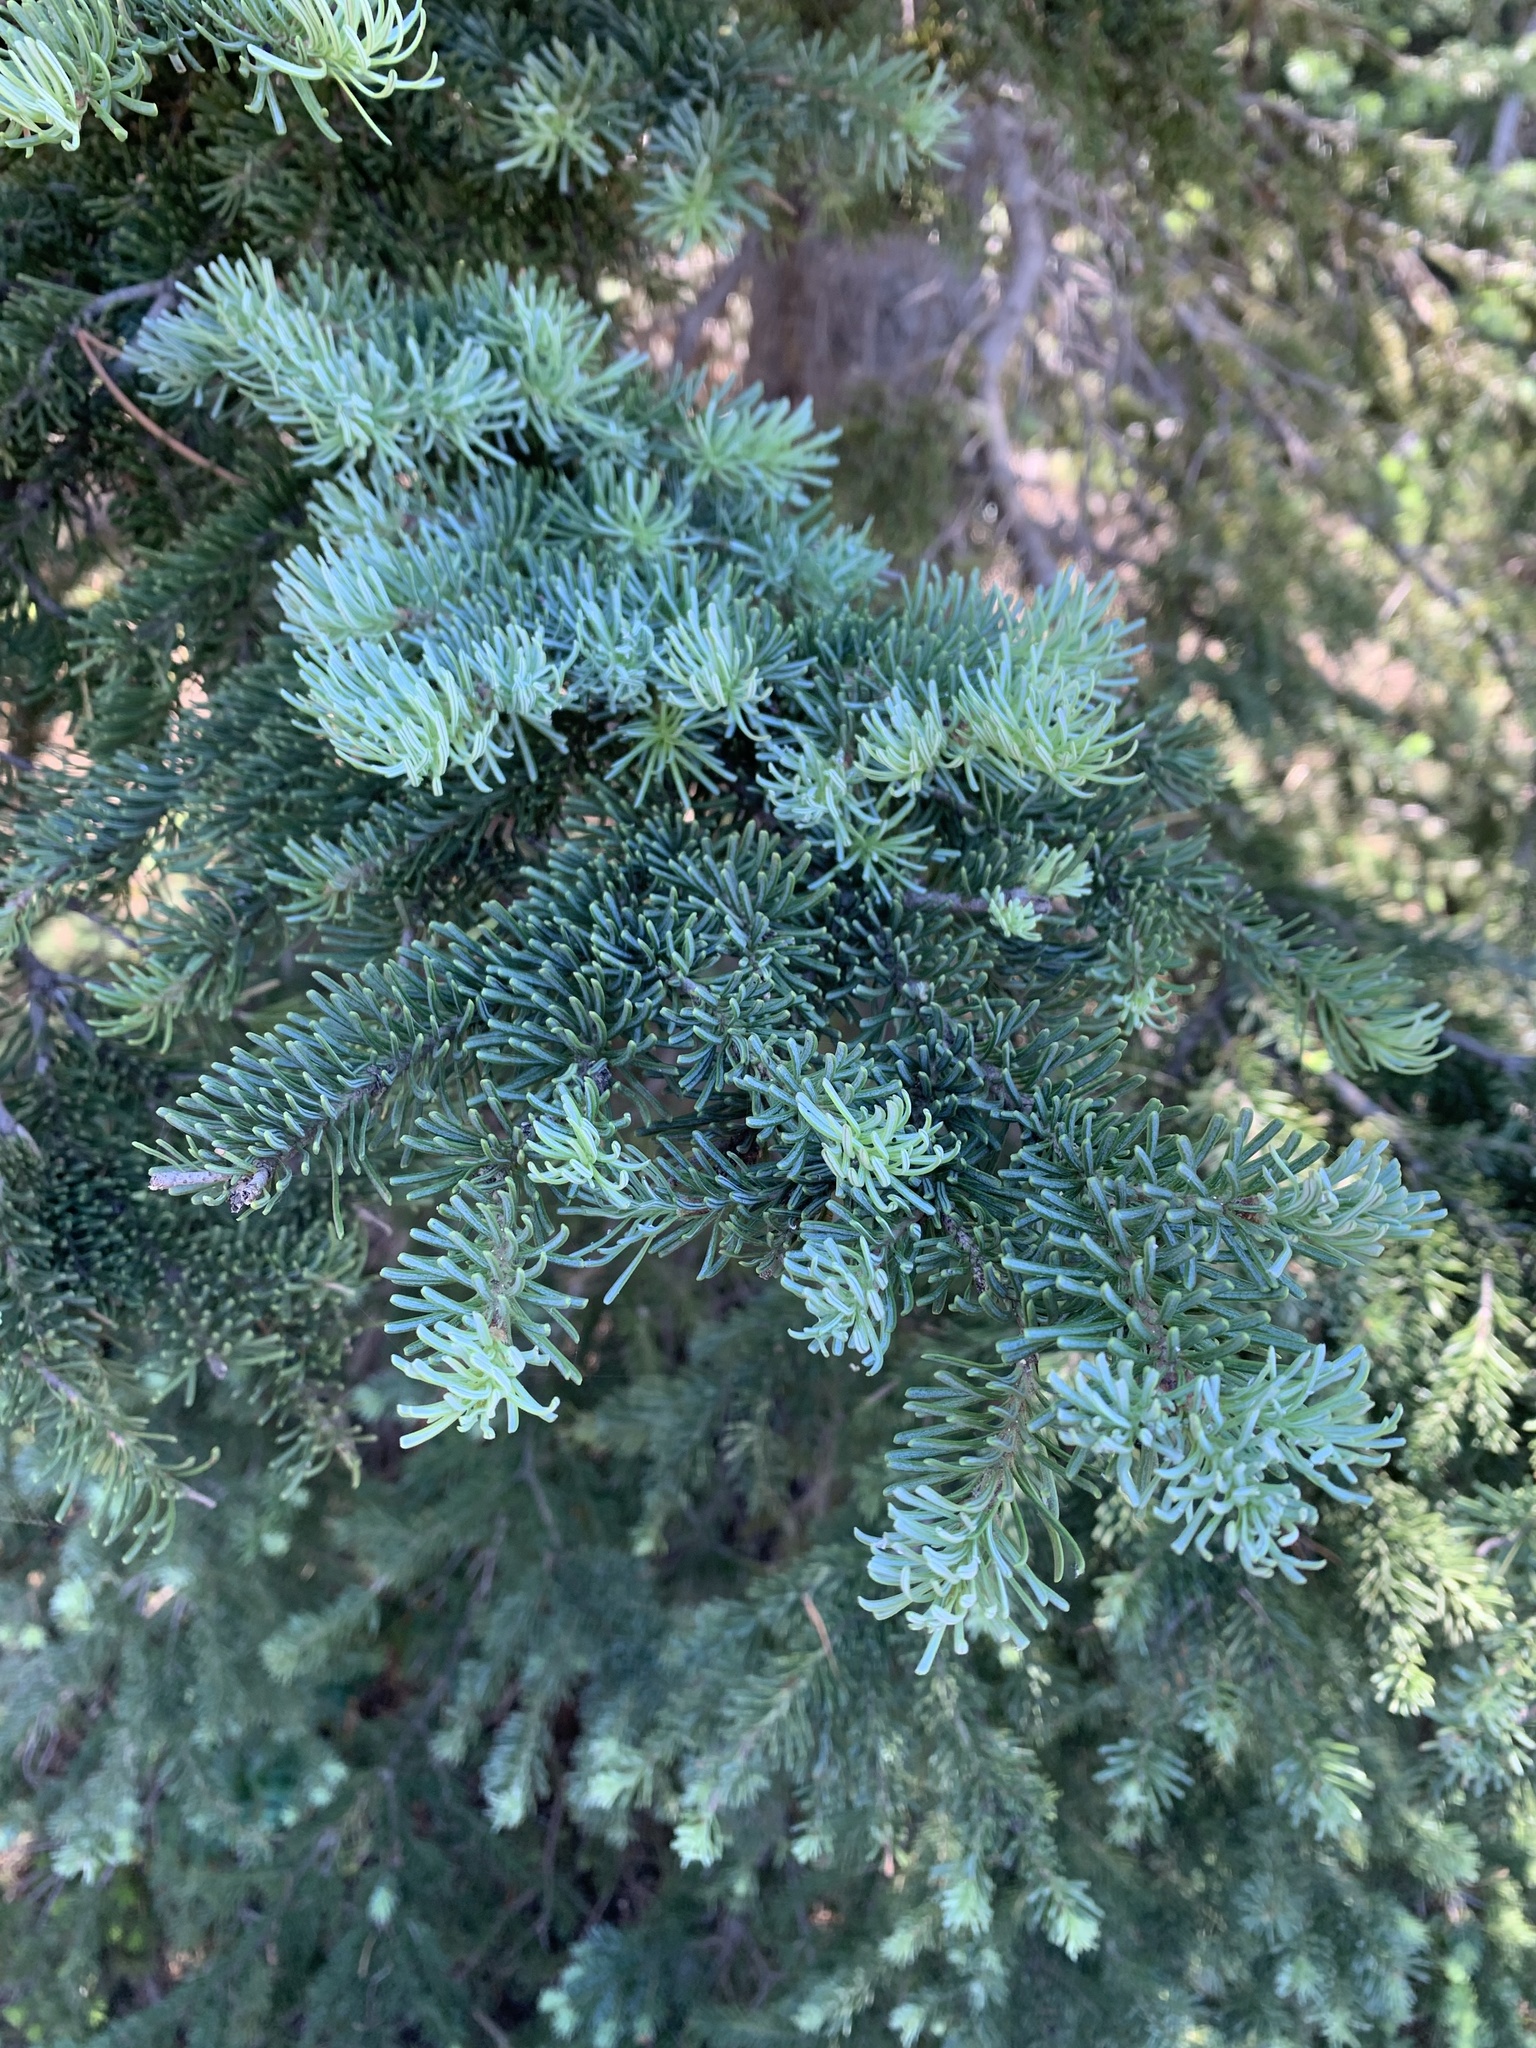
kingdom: Plantae
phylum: Tracheophyta
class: Pinopsida
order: Pinales
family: Pinaceae
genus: Abies
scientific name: Abies lasiocarpa
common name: Subalpine fir
